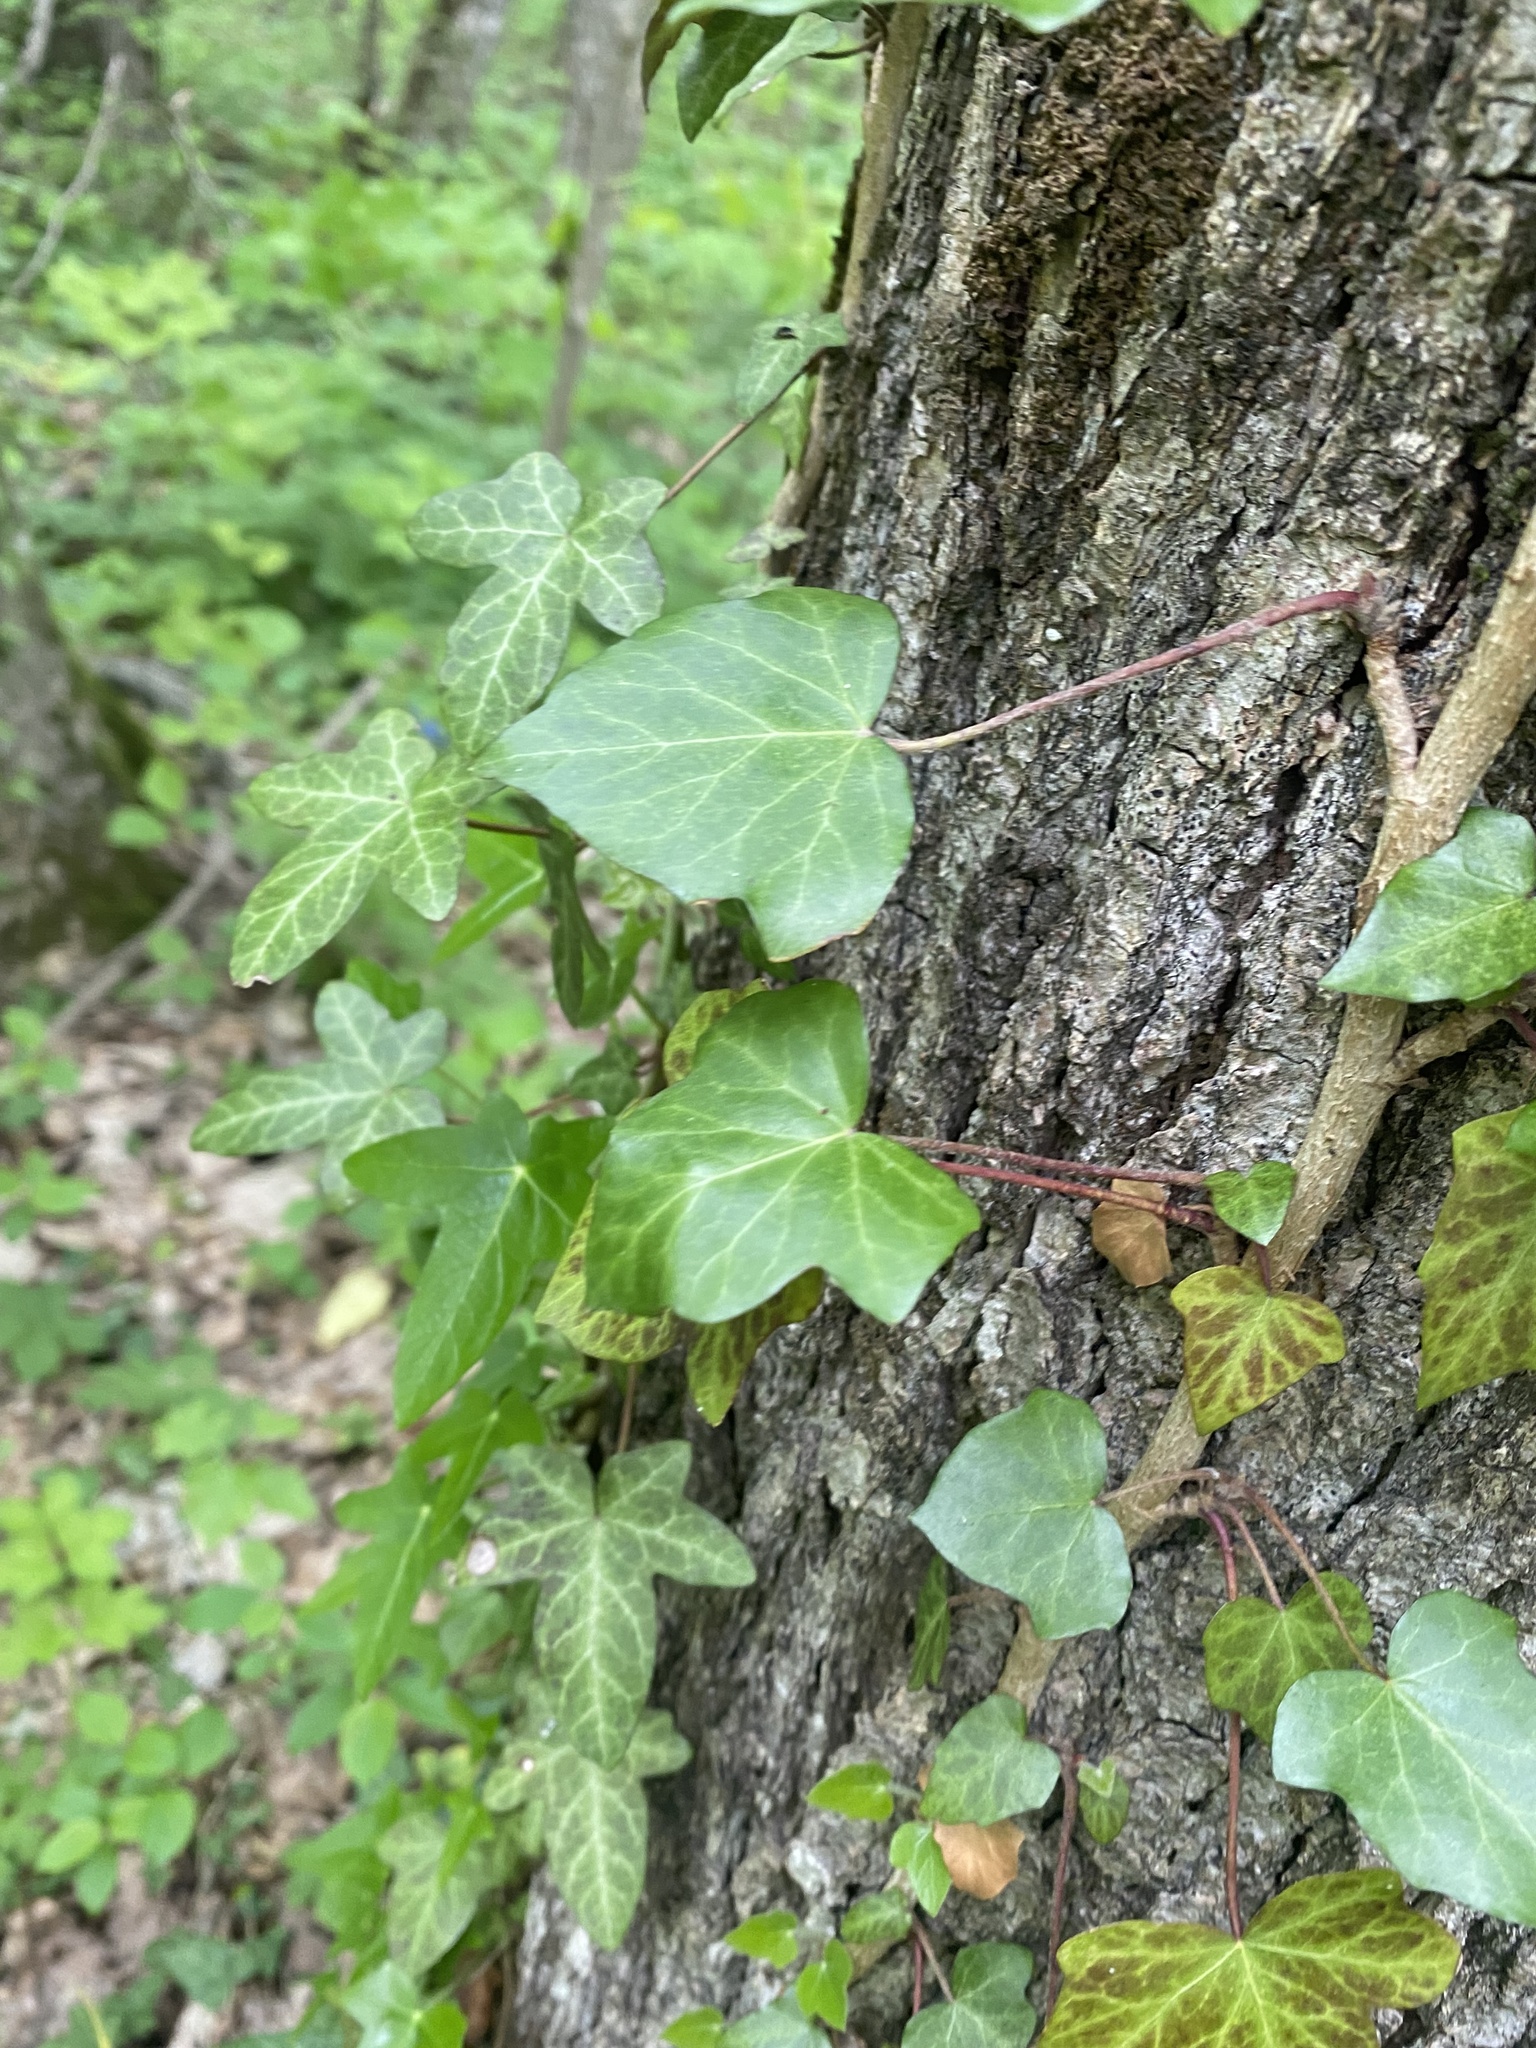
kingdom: Plantae
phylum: Tracheophyta
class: Magnoliopsida
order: Apiales
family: Araliaceae
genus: Hedera
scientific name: Hedera helix
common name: Ivy
